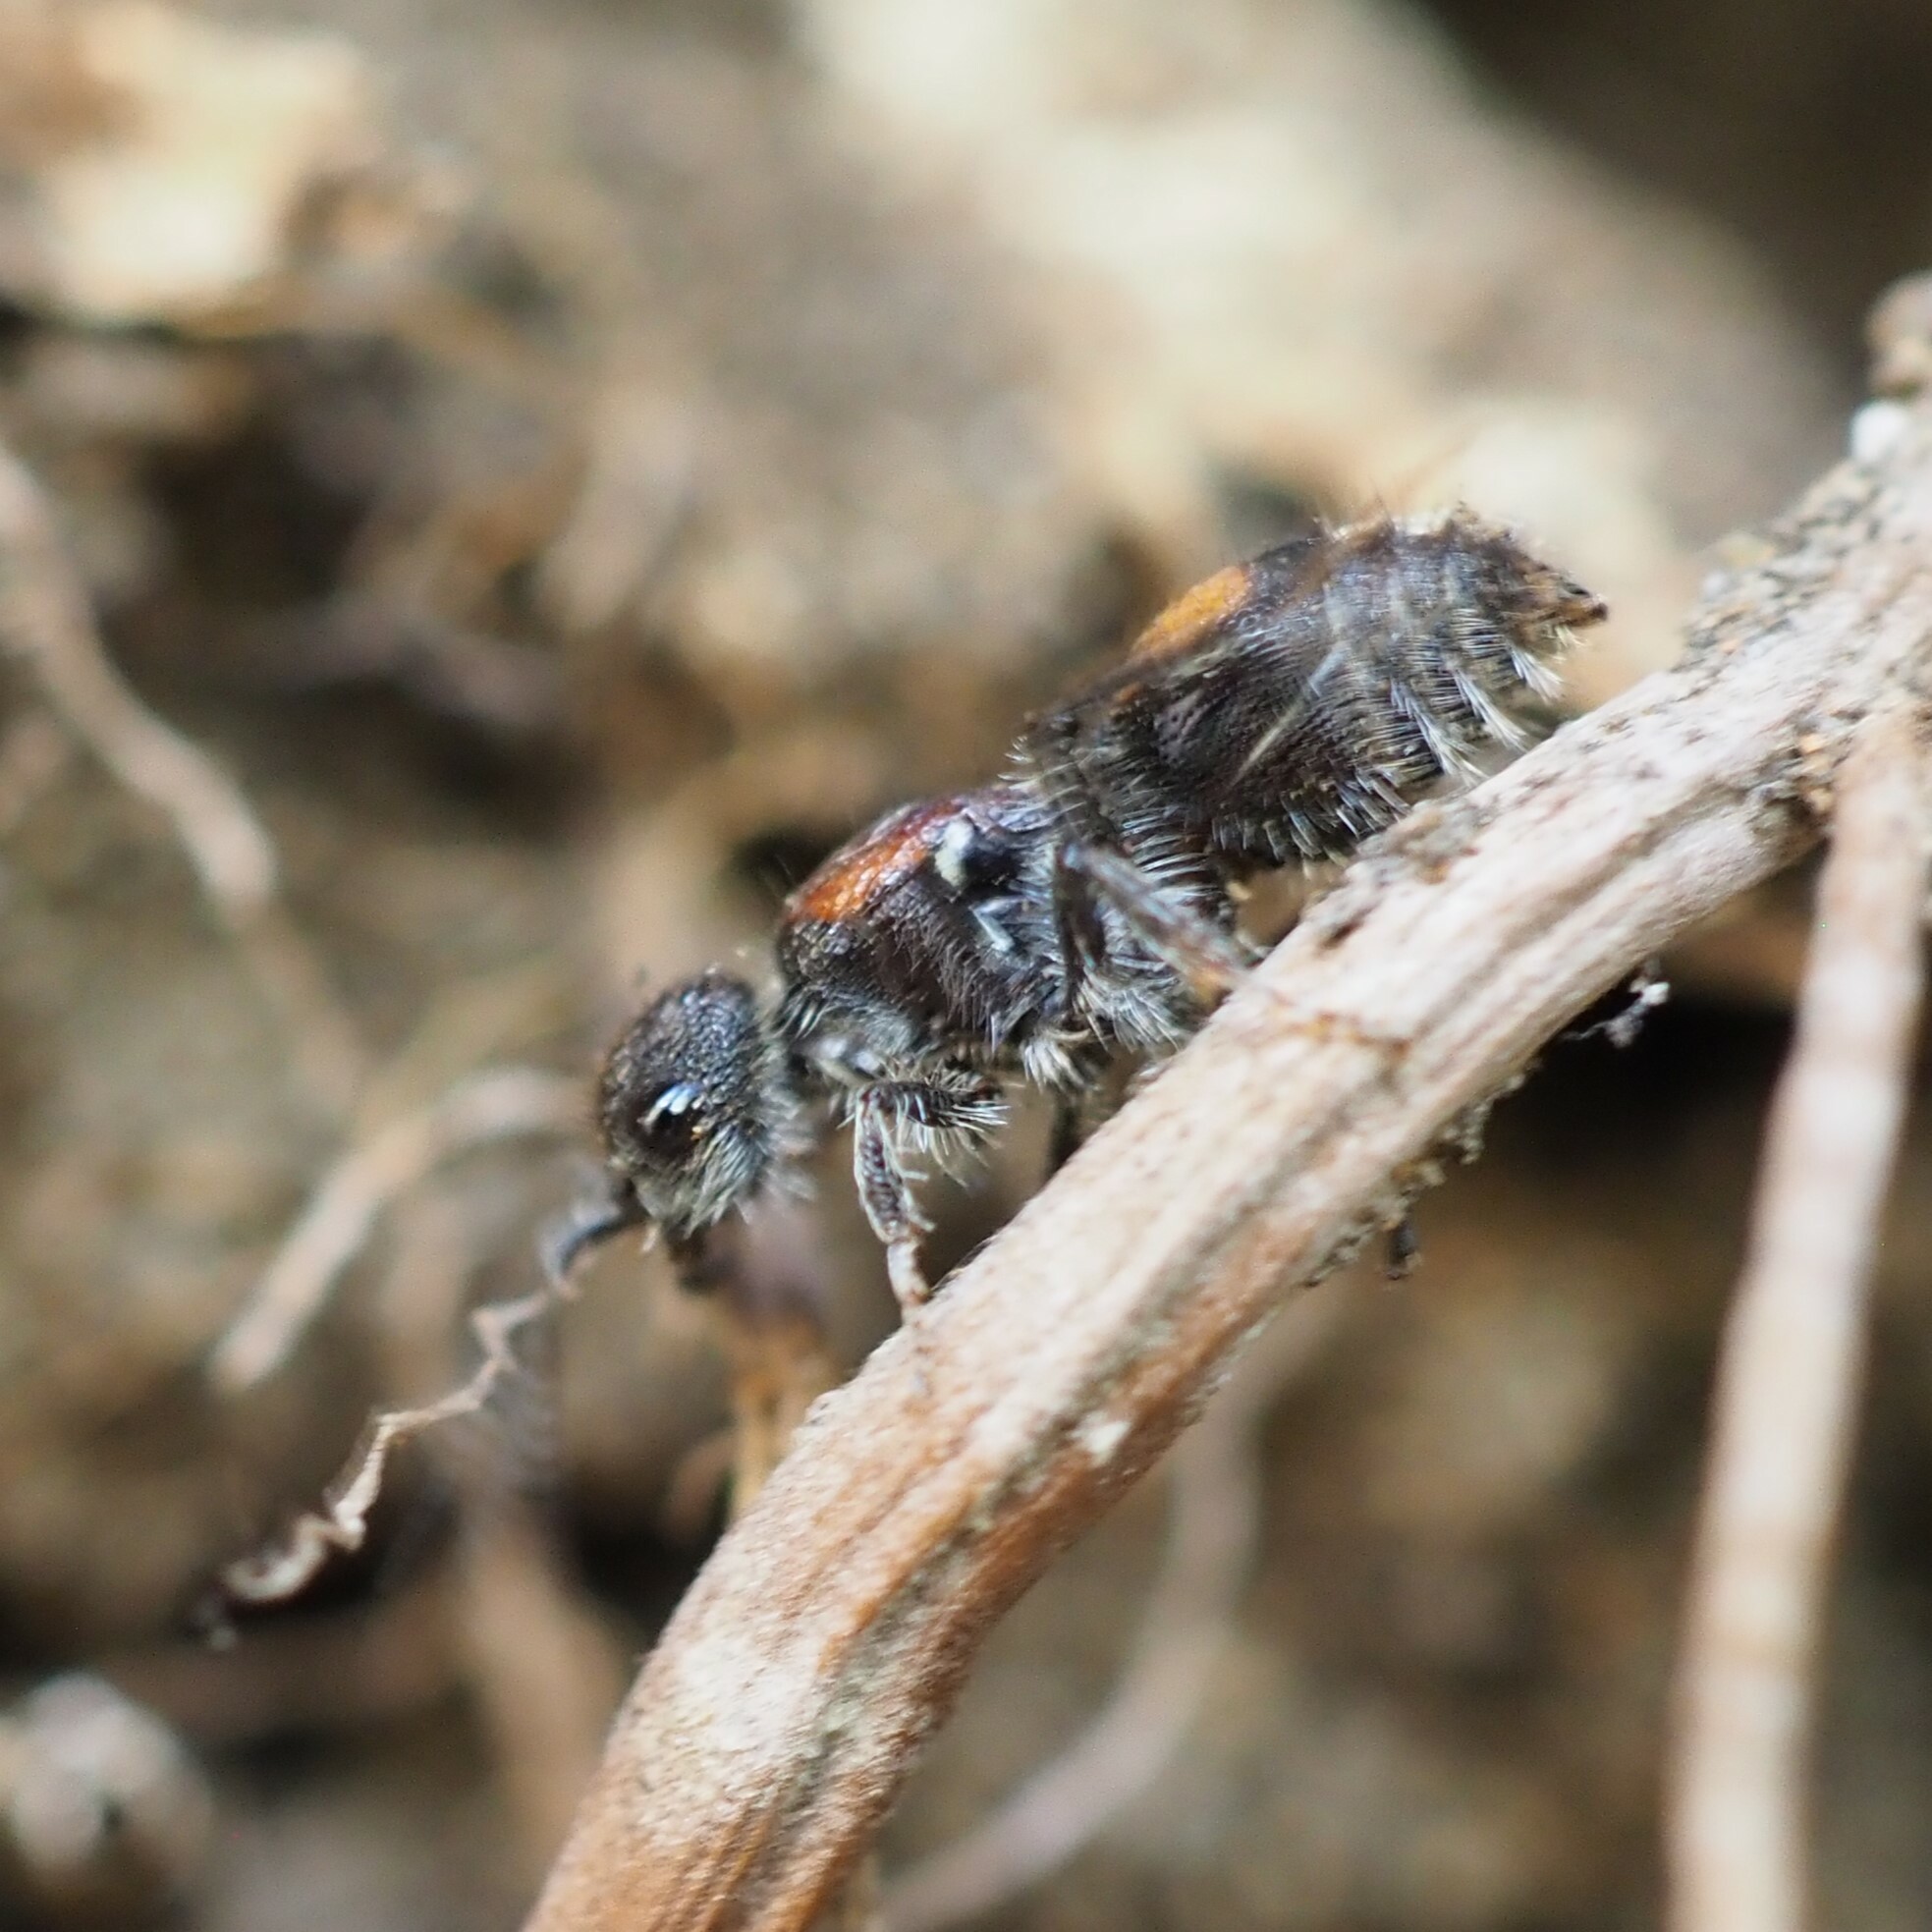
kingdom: Animalia
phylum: Arthropoda
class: Insecta
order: Hymenoptera
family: Mutillidae
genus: Ephutomorpha
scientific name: Ephutomorpha
